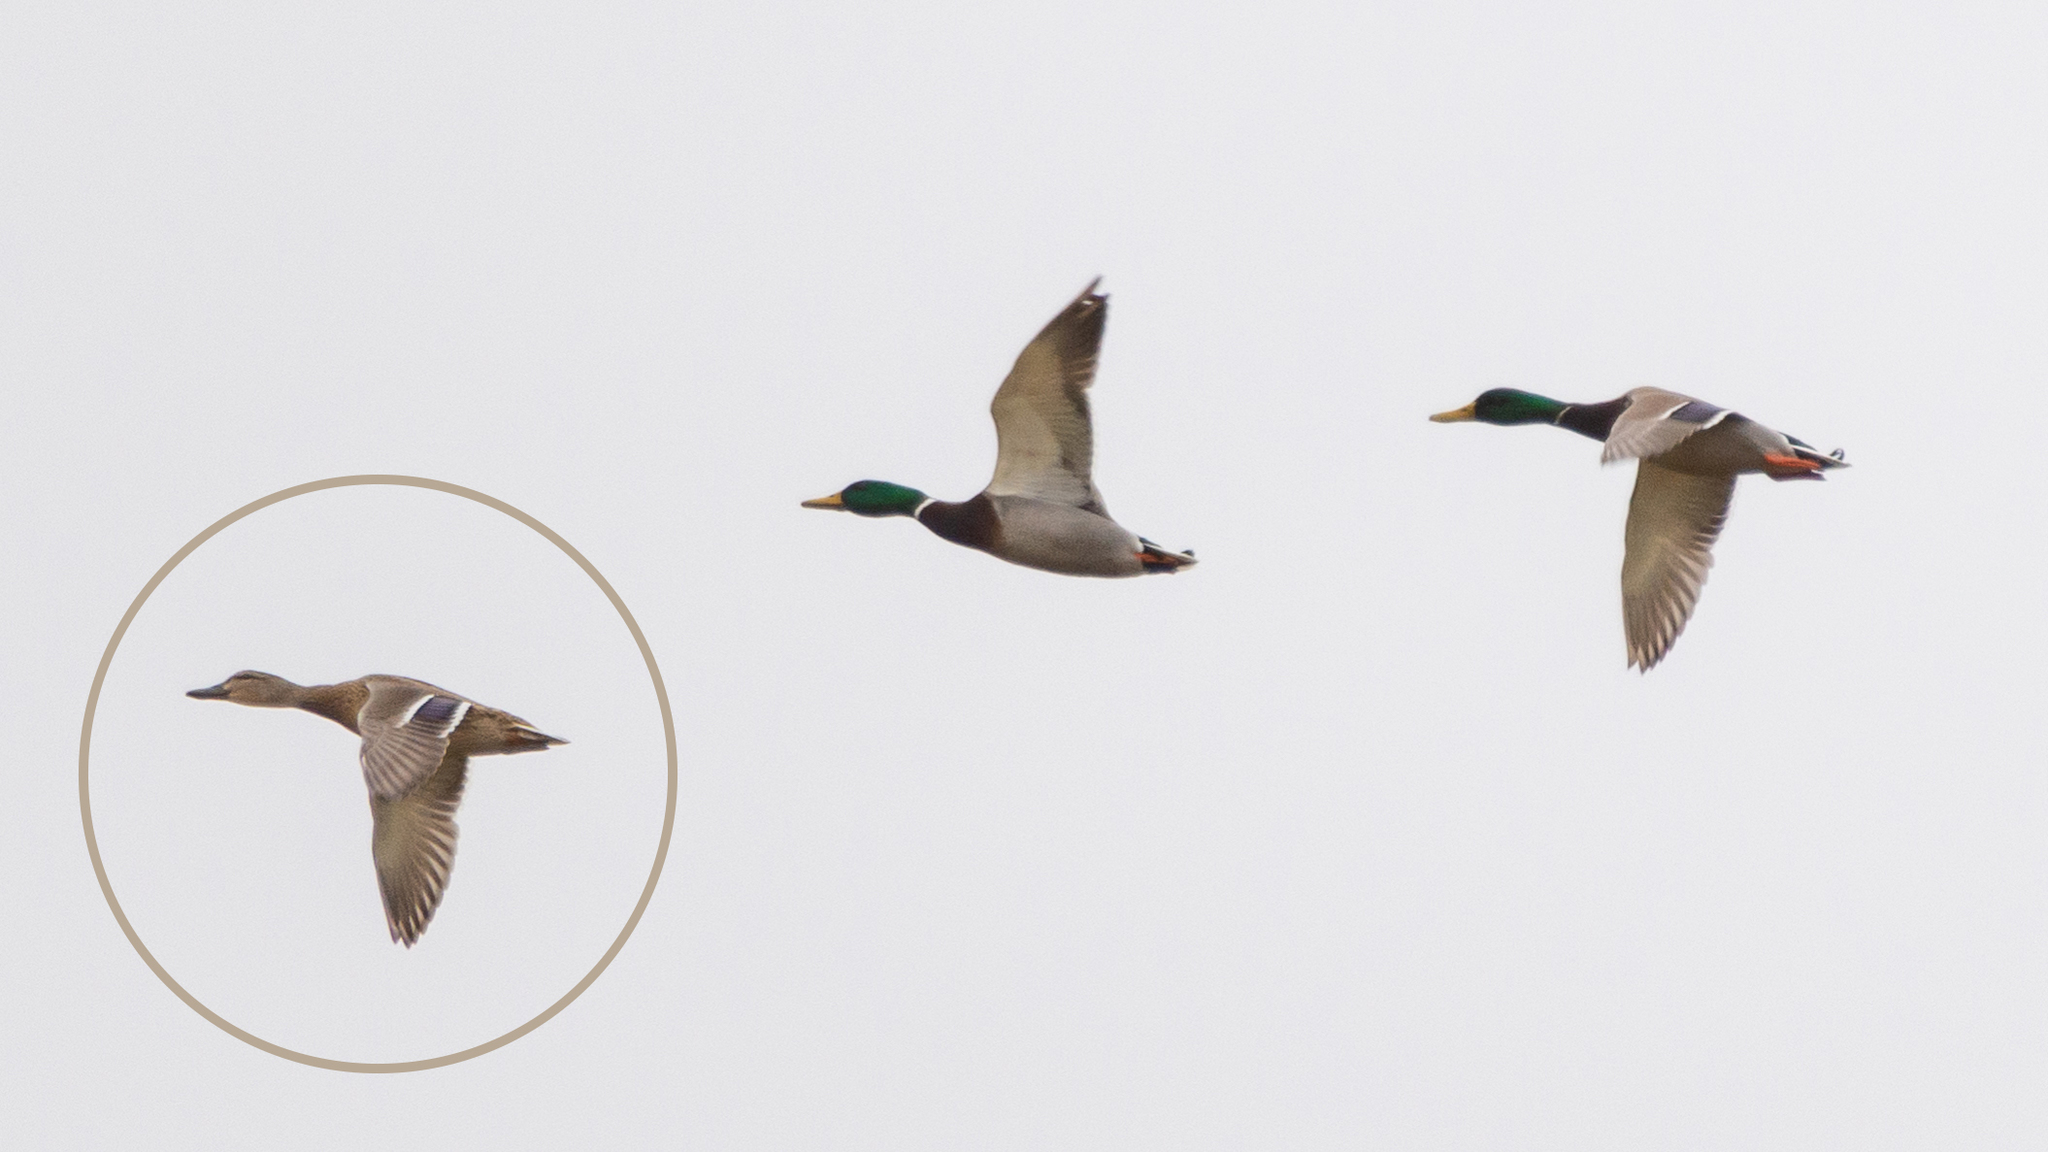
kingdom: Animalia
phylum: Chordata
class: Aves
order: Anseriformes
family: Anatidae
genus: Anas
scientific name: Anas platyrhynchos
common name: Mallard
